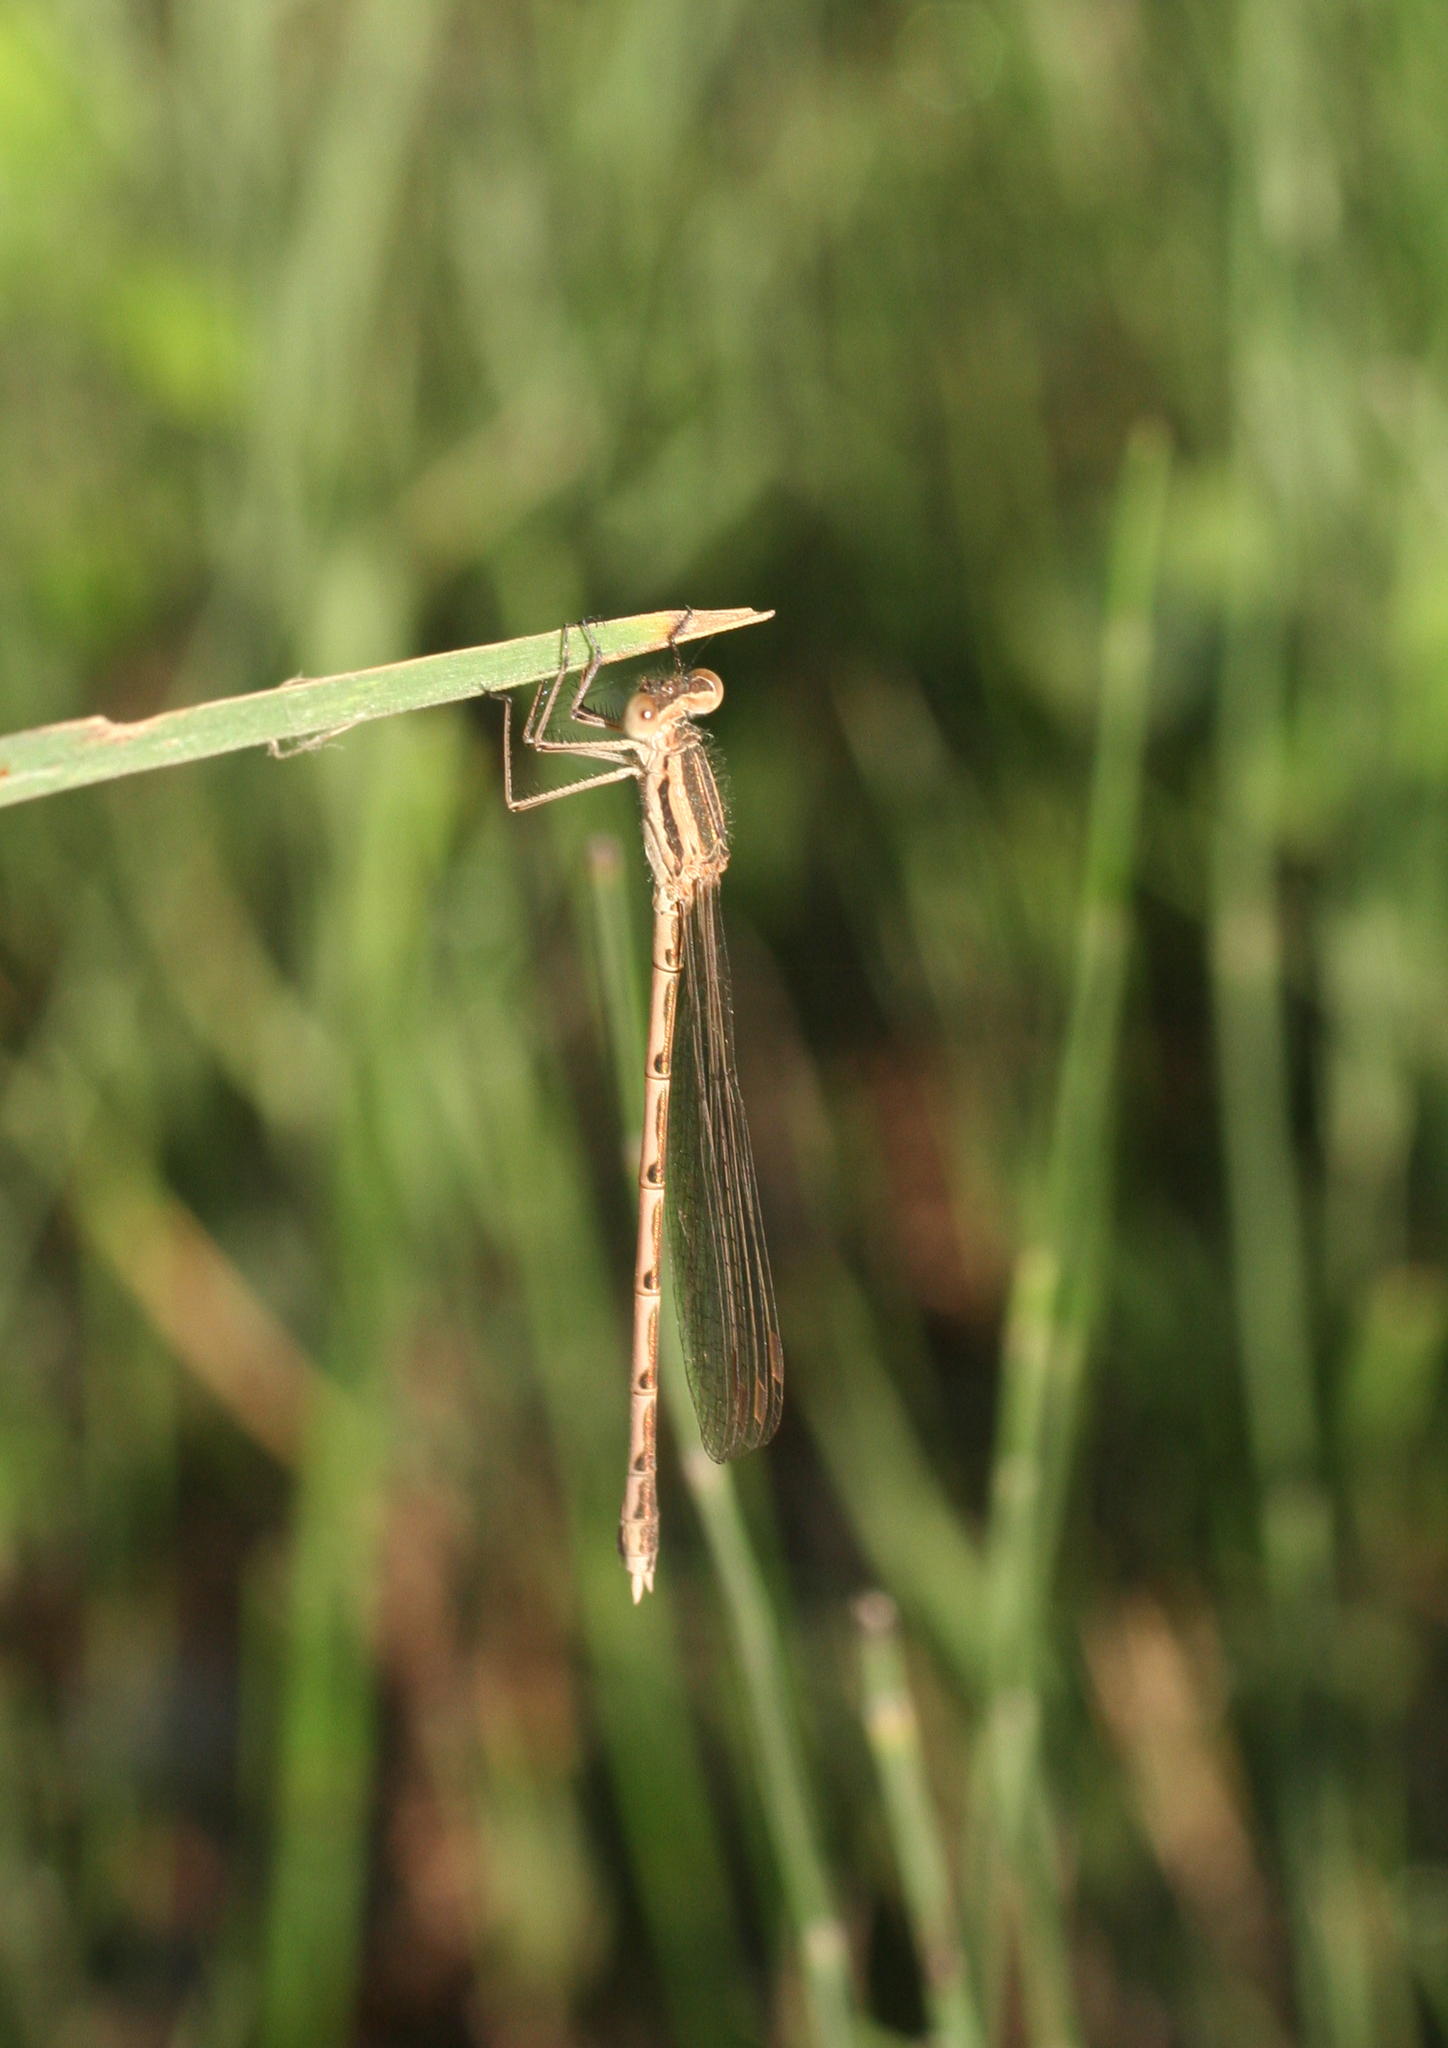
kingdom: Animalia
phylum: Arthropoda
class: Insecta
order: Odonata
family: Lestidae
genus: Sympecma
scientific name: Sympecma fusca
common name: Common winter damsel
